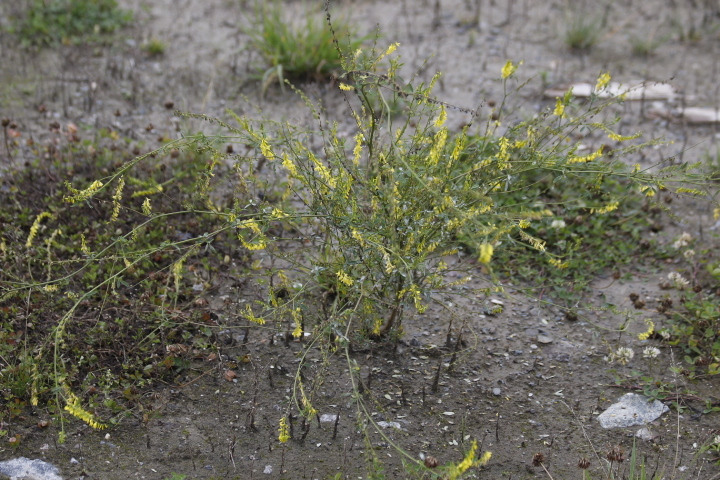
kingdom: Plantae
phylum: Tracheophyta
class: Magnoliopsida
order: Fabales
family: Fabaceae
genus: Melilotus
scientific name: Melilotus officinalis
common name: Sweetclover
